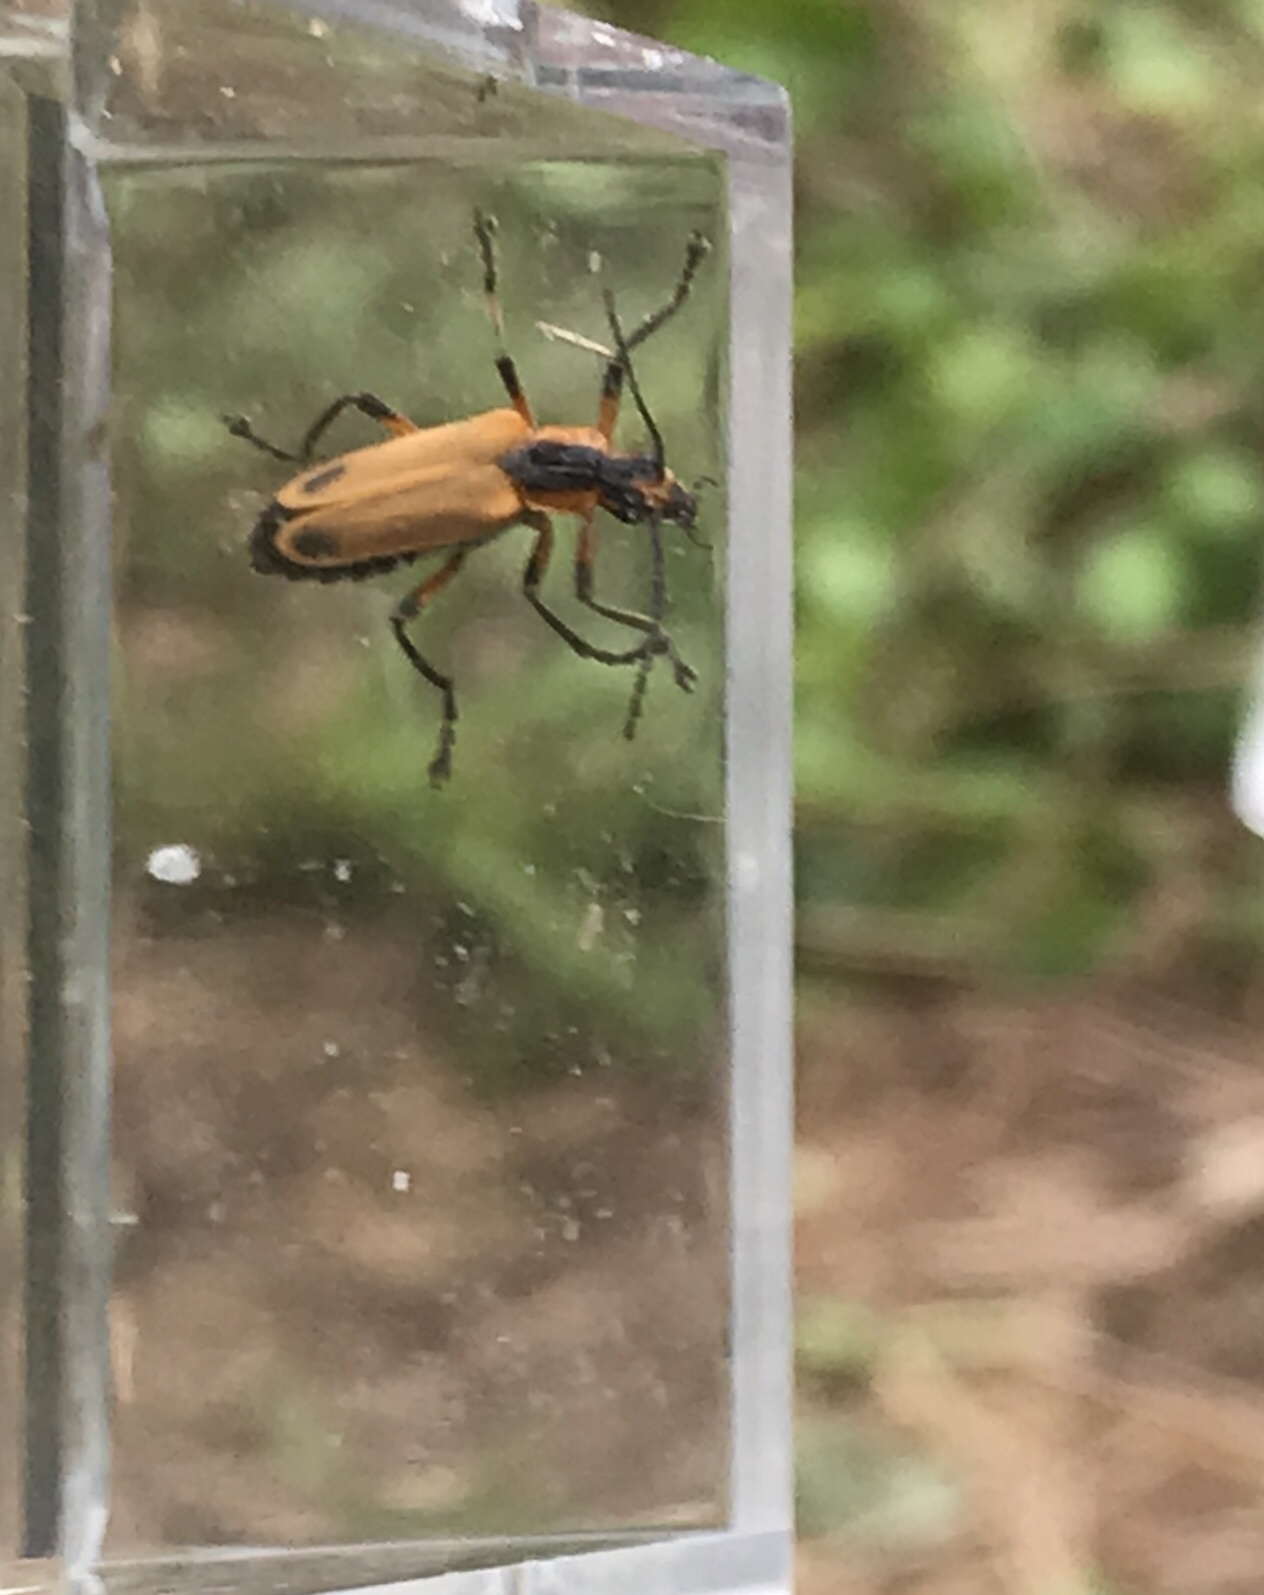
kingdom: Animalia
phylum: Arthropoda
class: Insecta
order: Coleoptera
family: Cantharidae
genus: Chauliognathus
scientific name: Chauliognathus marginatus
